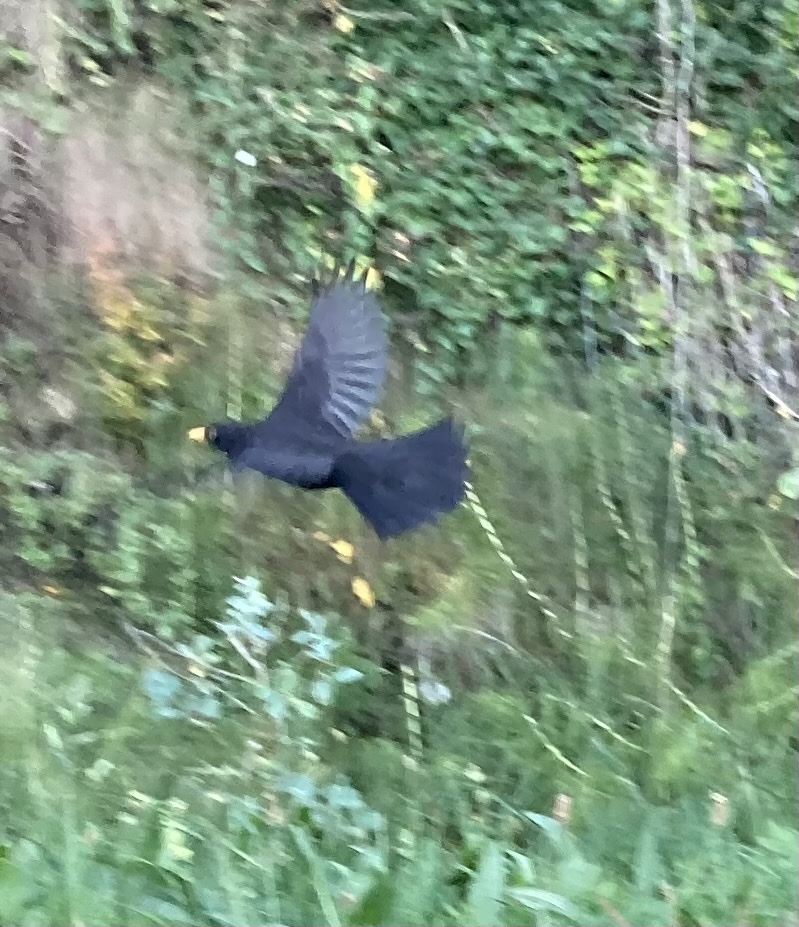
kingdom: Animalia
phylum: Chordata
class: Aves
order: Passeriformes
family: Turdidae
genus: Turdus
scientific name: Turdus merula
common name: Common blackbird
